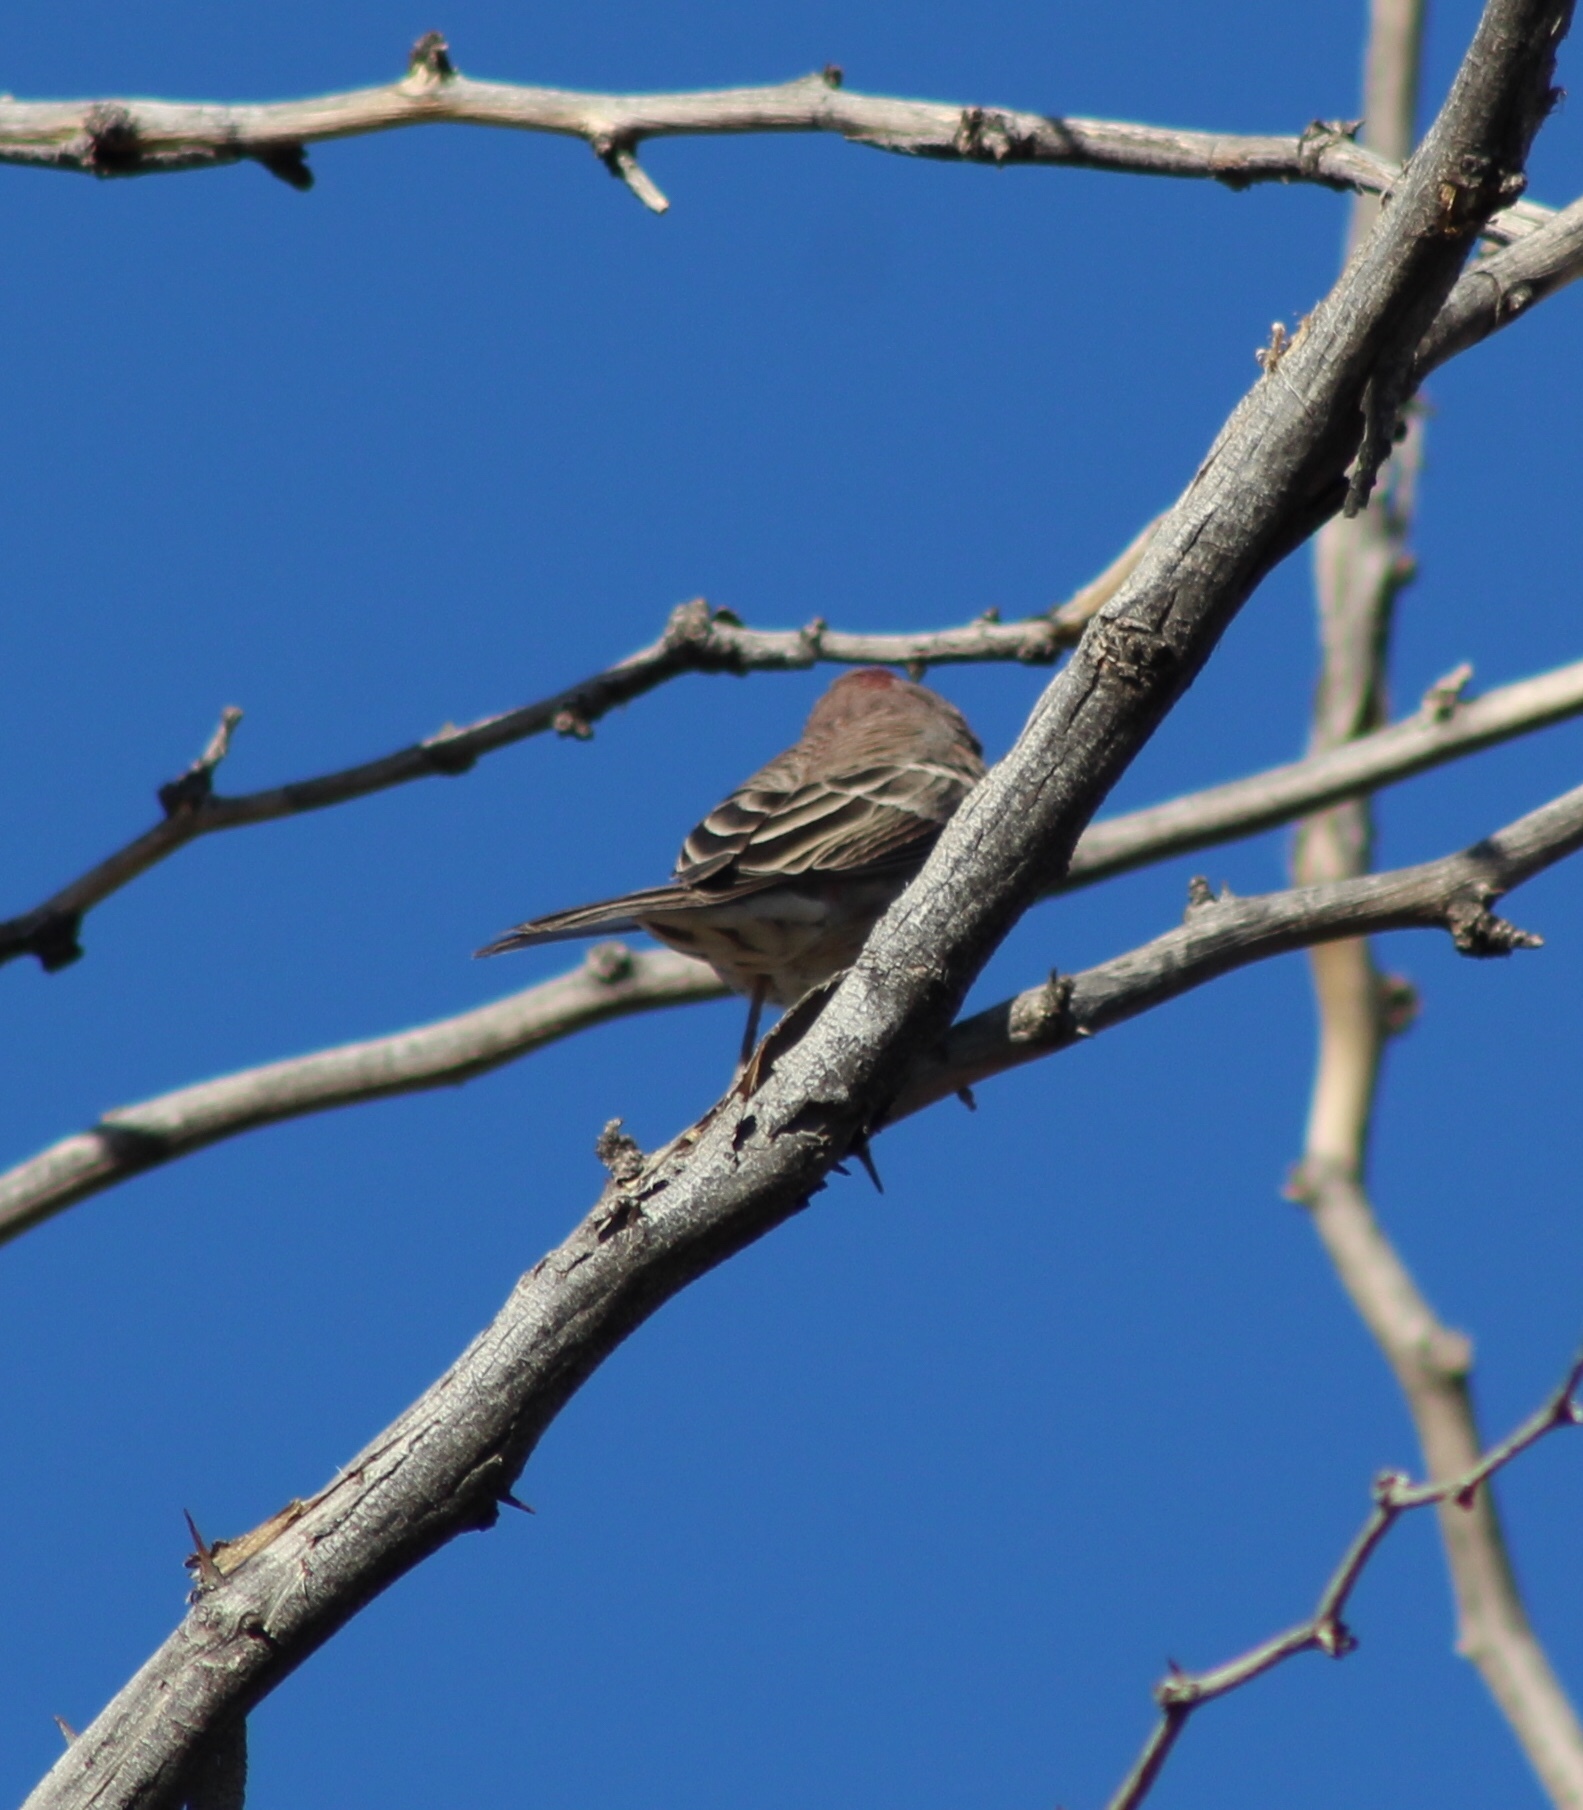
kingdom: Animalia
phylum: Chordata
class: Aves
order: Passeriformes
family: Fringillidae
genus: Haemorhous
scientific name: Haemorhous mexicanus
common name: House finch
